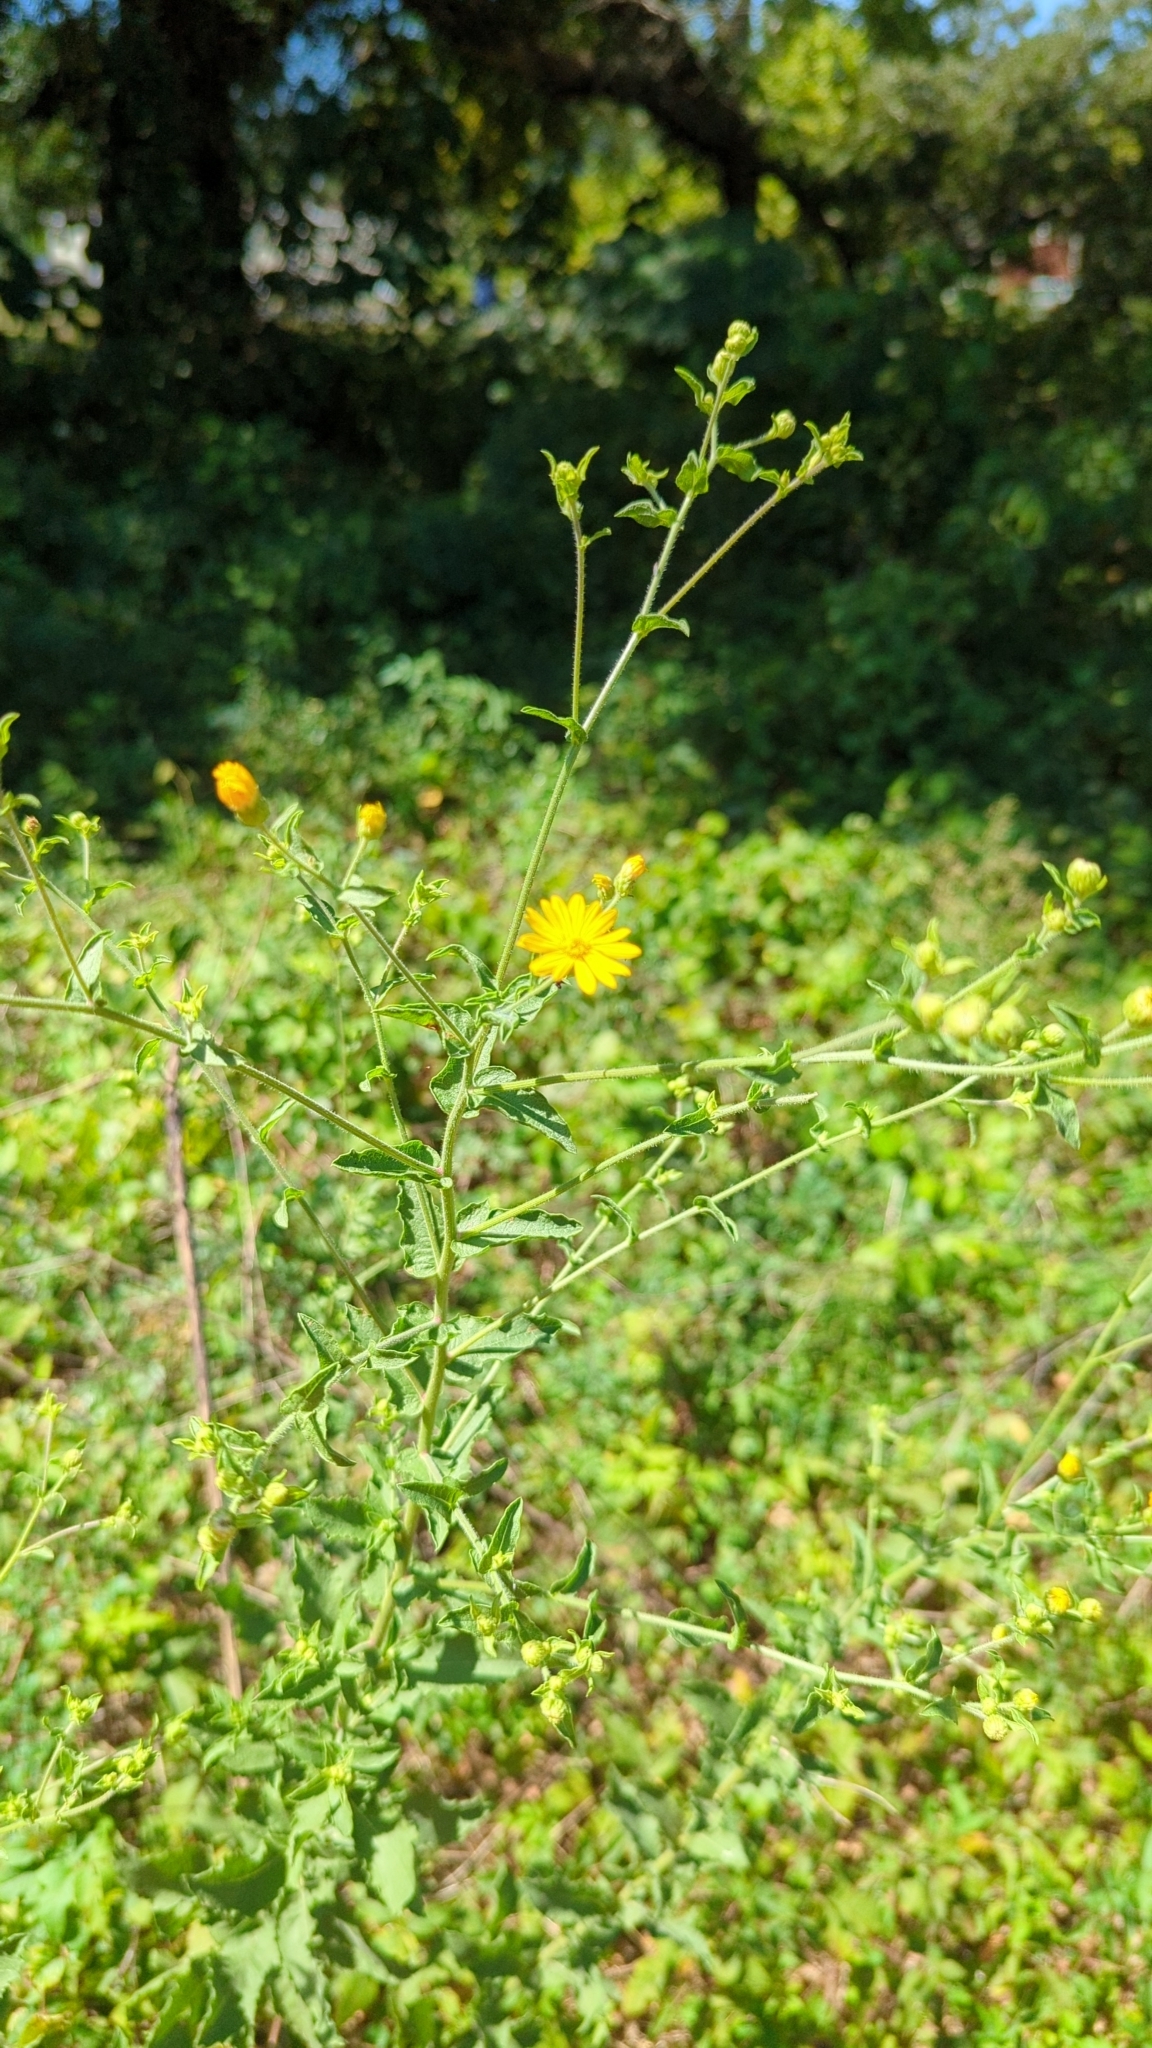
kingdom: Plantae
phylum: Tracheophyta
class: Magnoliopsida
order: Asterales
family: Asteraceae
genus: Heterotheca
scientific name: Heterotheca subaxillaris
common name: Camphorweed
